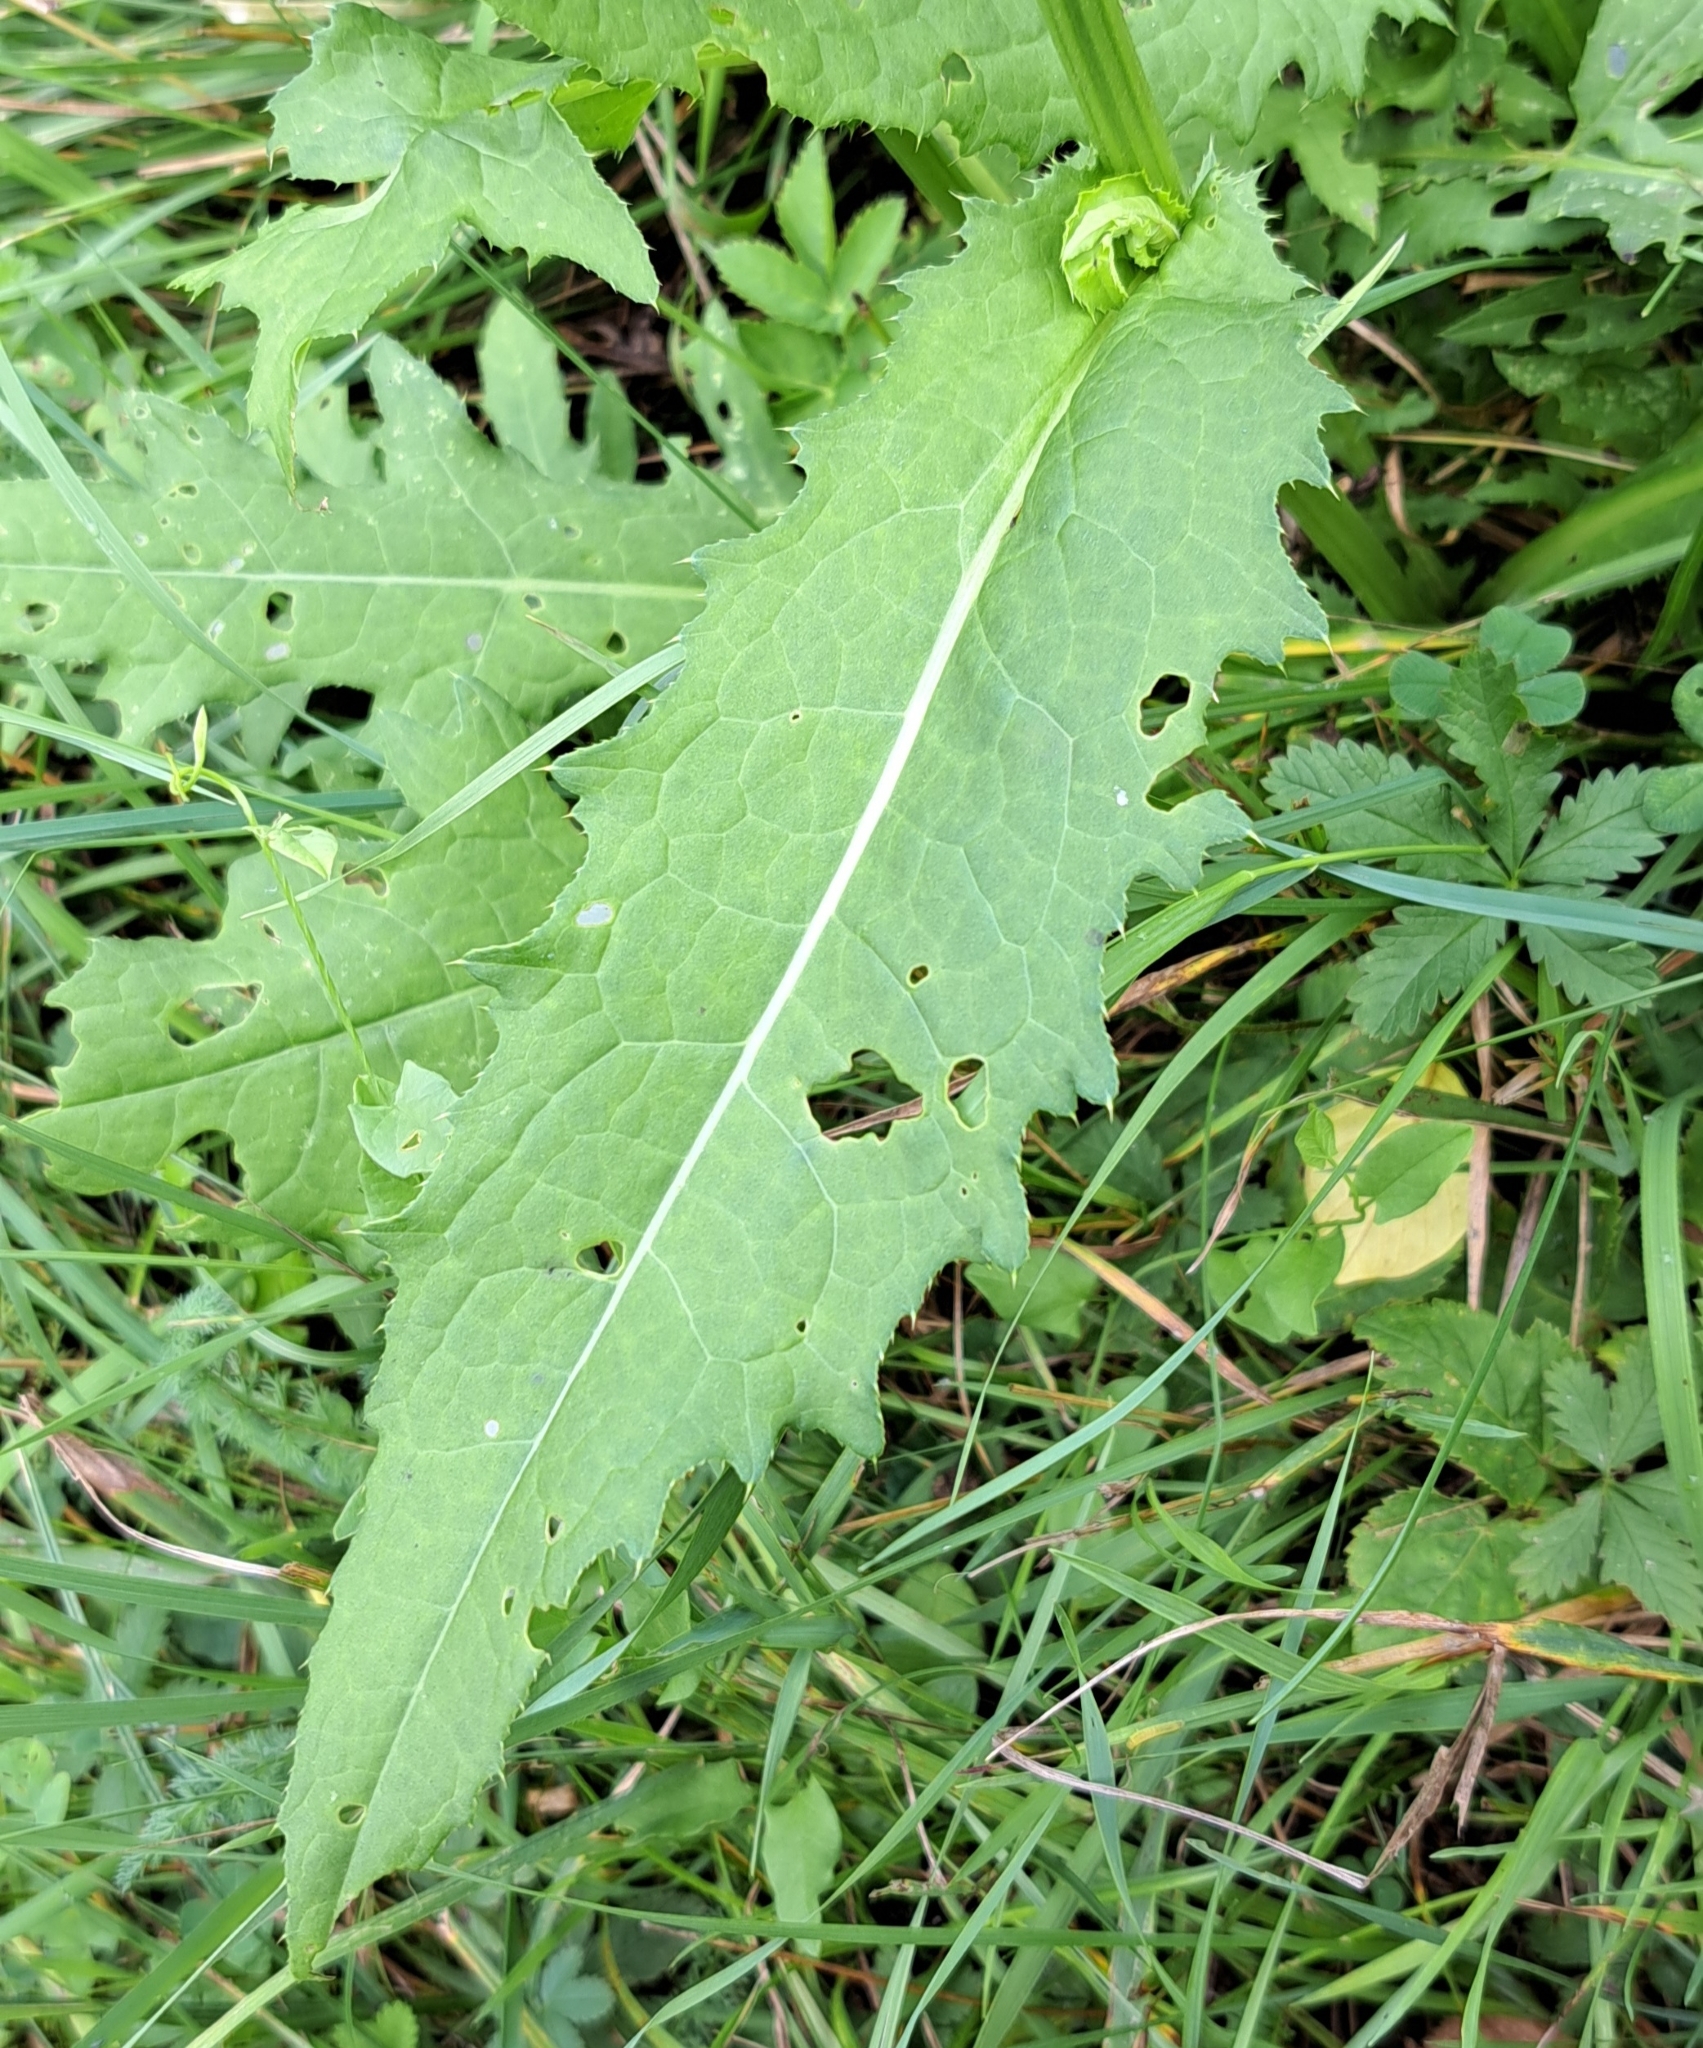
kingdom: Plantae
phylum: Tracheophyta
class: Magnoliopsida
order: Asterales
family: Asteraceae
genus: Cirsium
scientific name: Cirsium oleraceum
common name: Cabbage thistle
